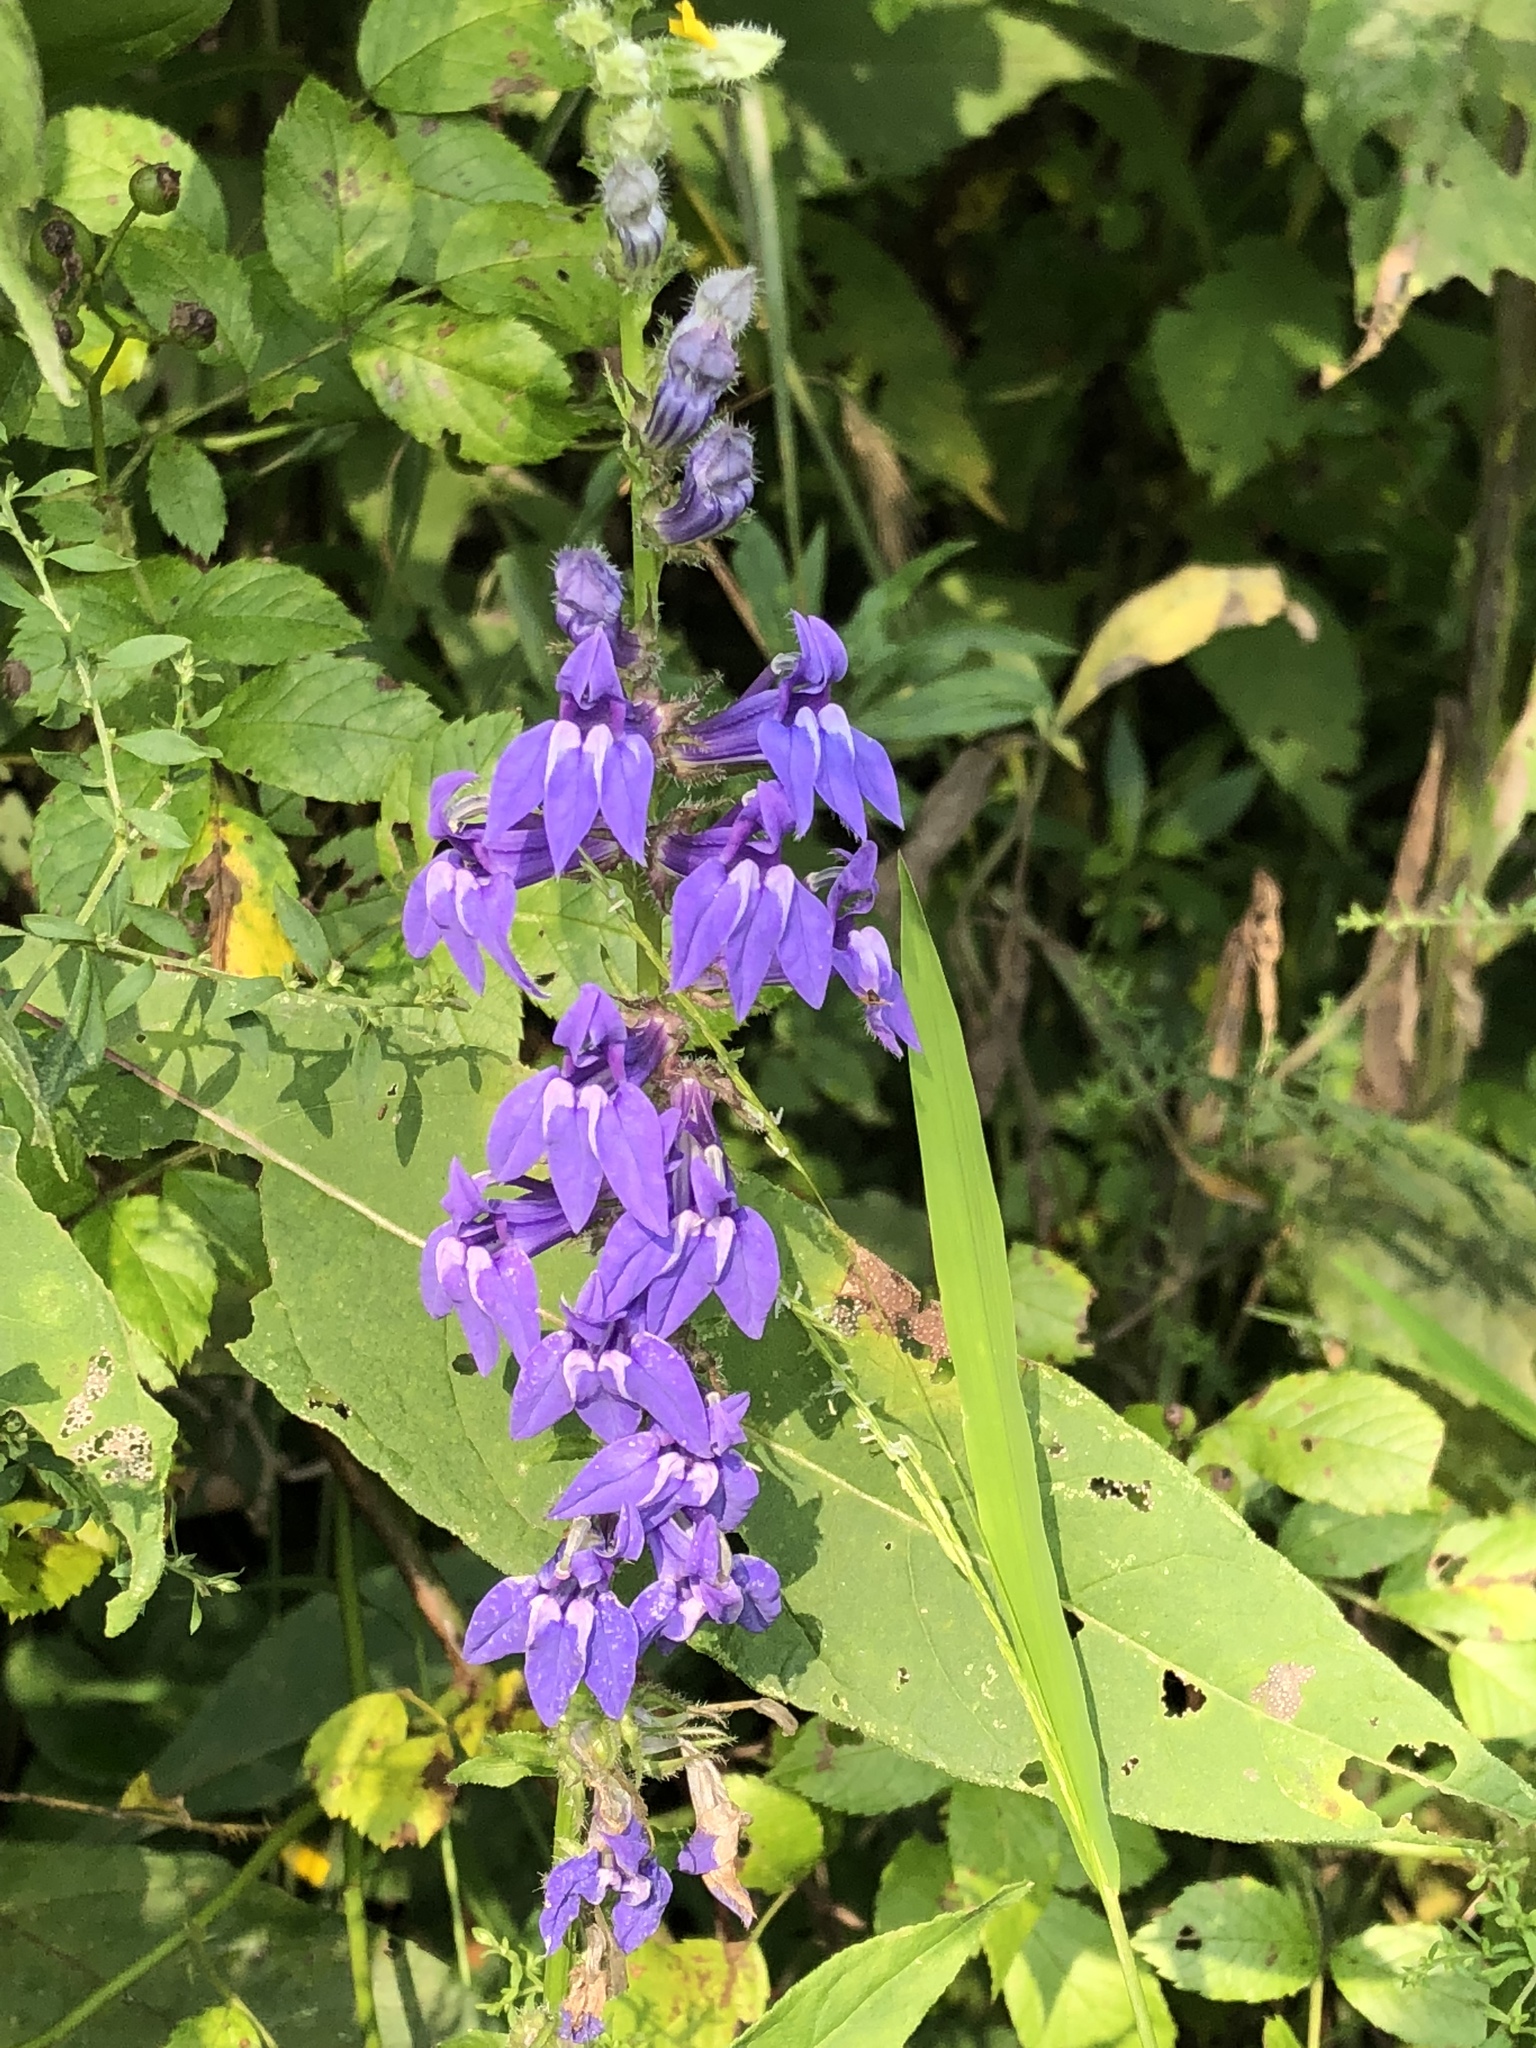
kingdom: Plantae
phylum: Tracheophyta
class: Magnoliopsida
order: Asterales
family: Campanulaceae
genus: Lobelia
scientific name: Lobelia siphilitica
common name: Great lobelia
